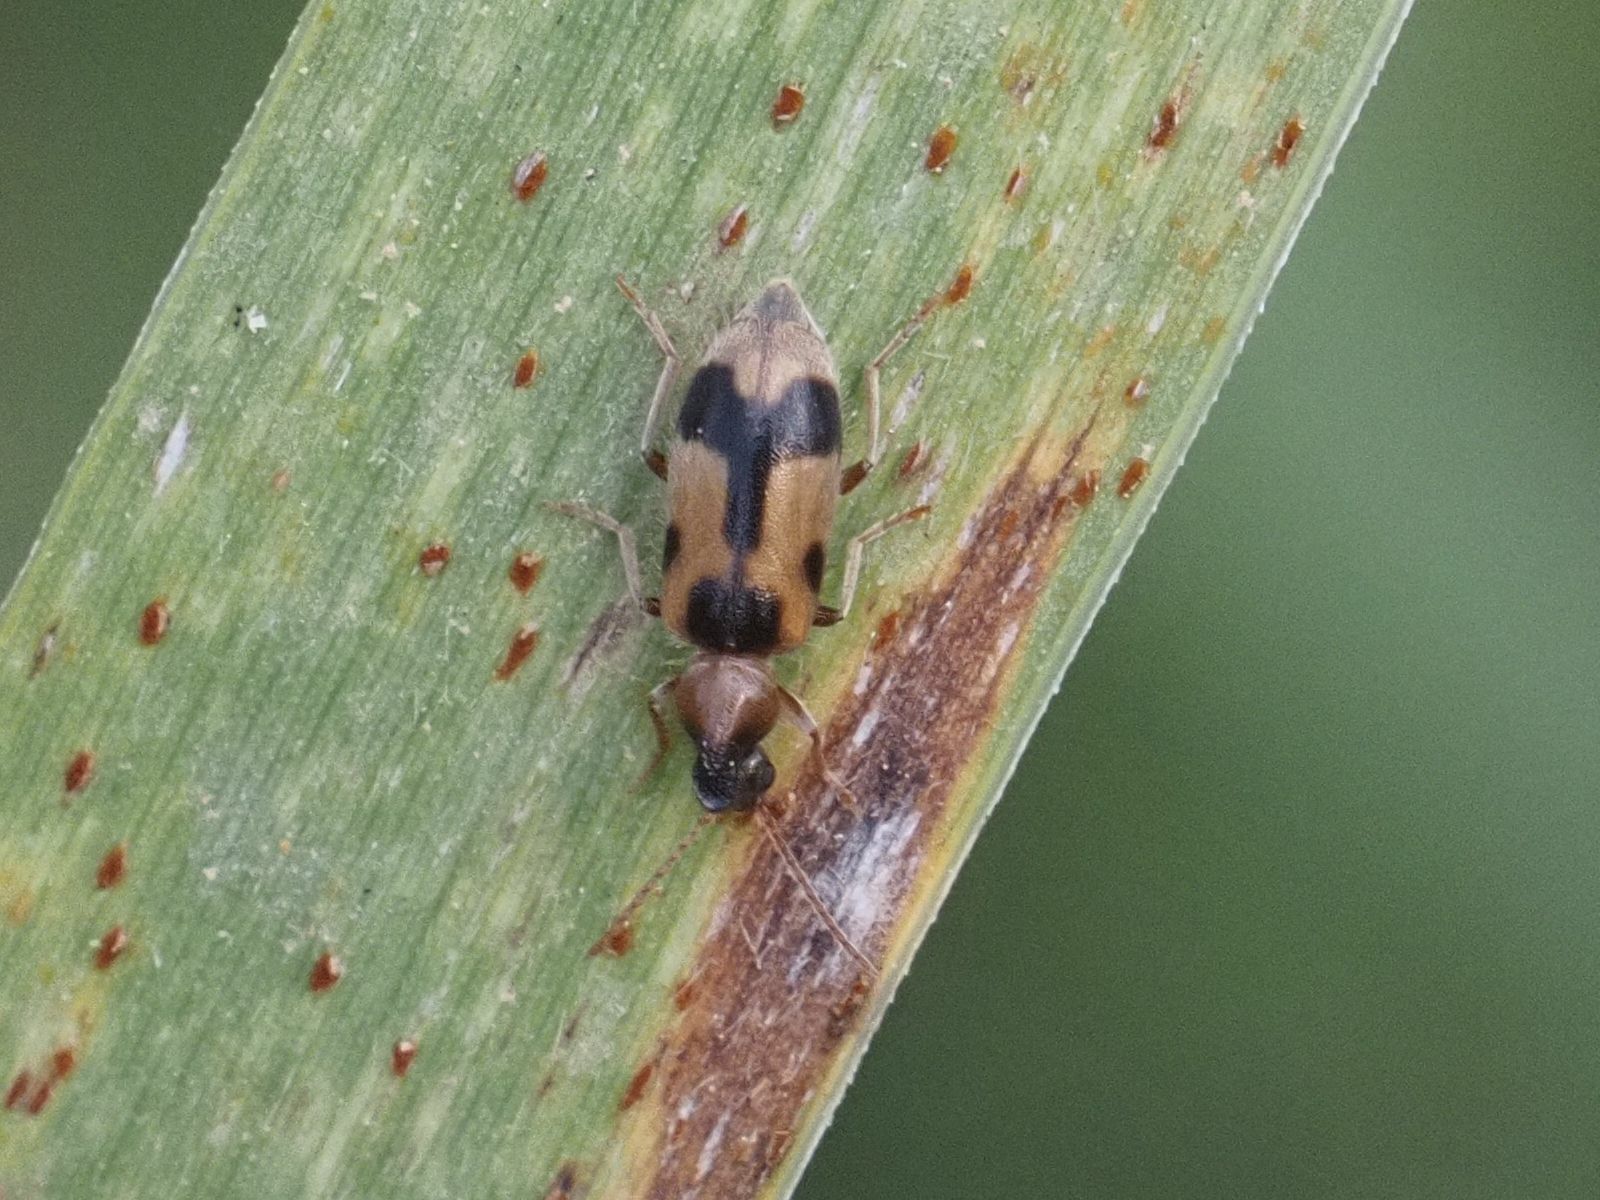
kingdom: Animalia
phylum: Arthropoda
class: Insecta
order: Coleoptera
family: Anthicidae
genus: Notoxus
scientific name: Notoxus appendicinus
